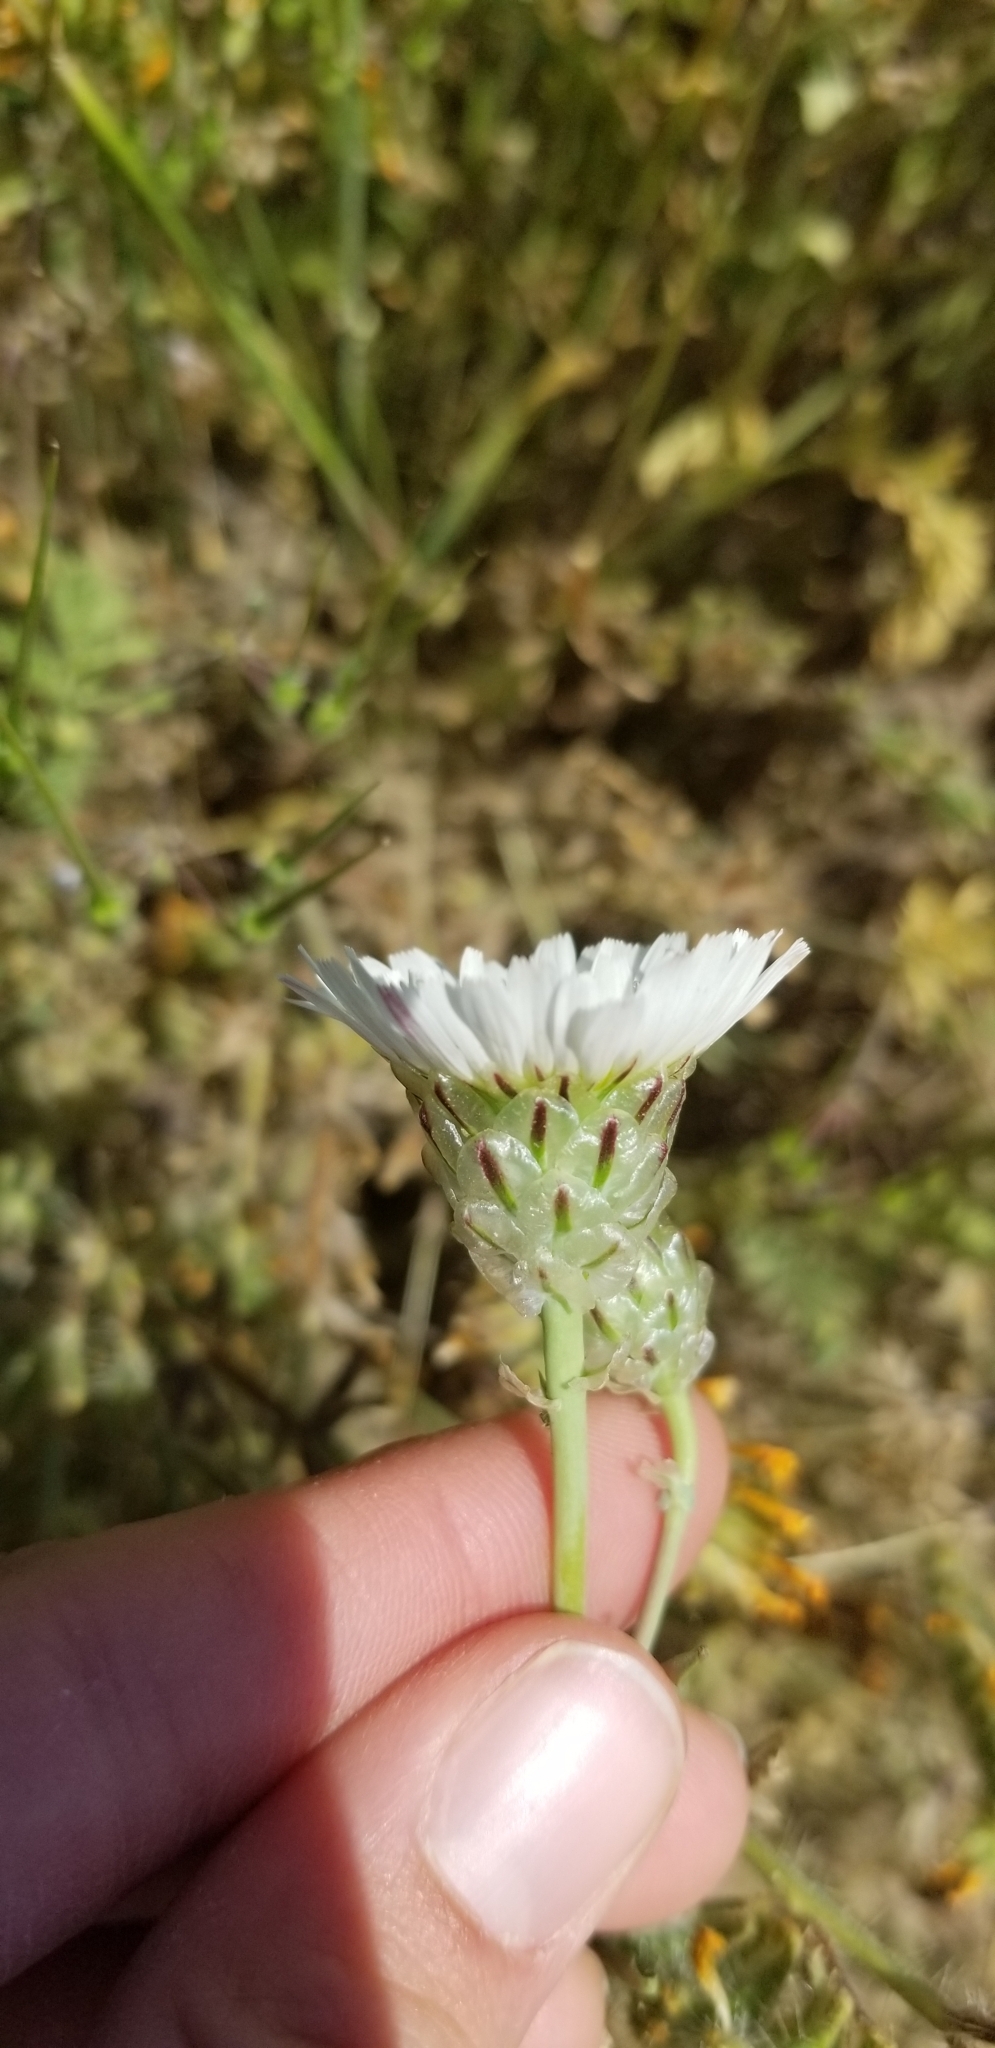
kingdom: Plantae
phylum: Tracheophyta
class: Magnoliopsida
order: Asterales
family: Asteraceae
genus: Malacothrix
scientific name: Malacothrix coulteri
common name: Snake's-head
